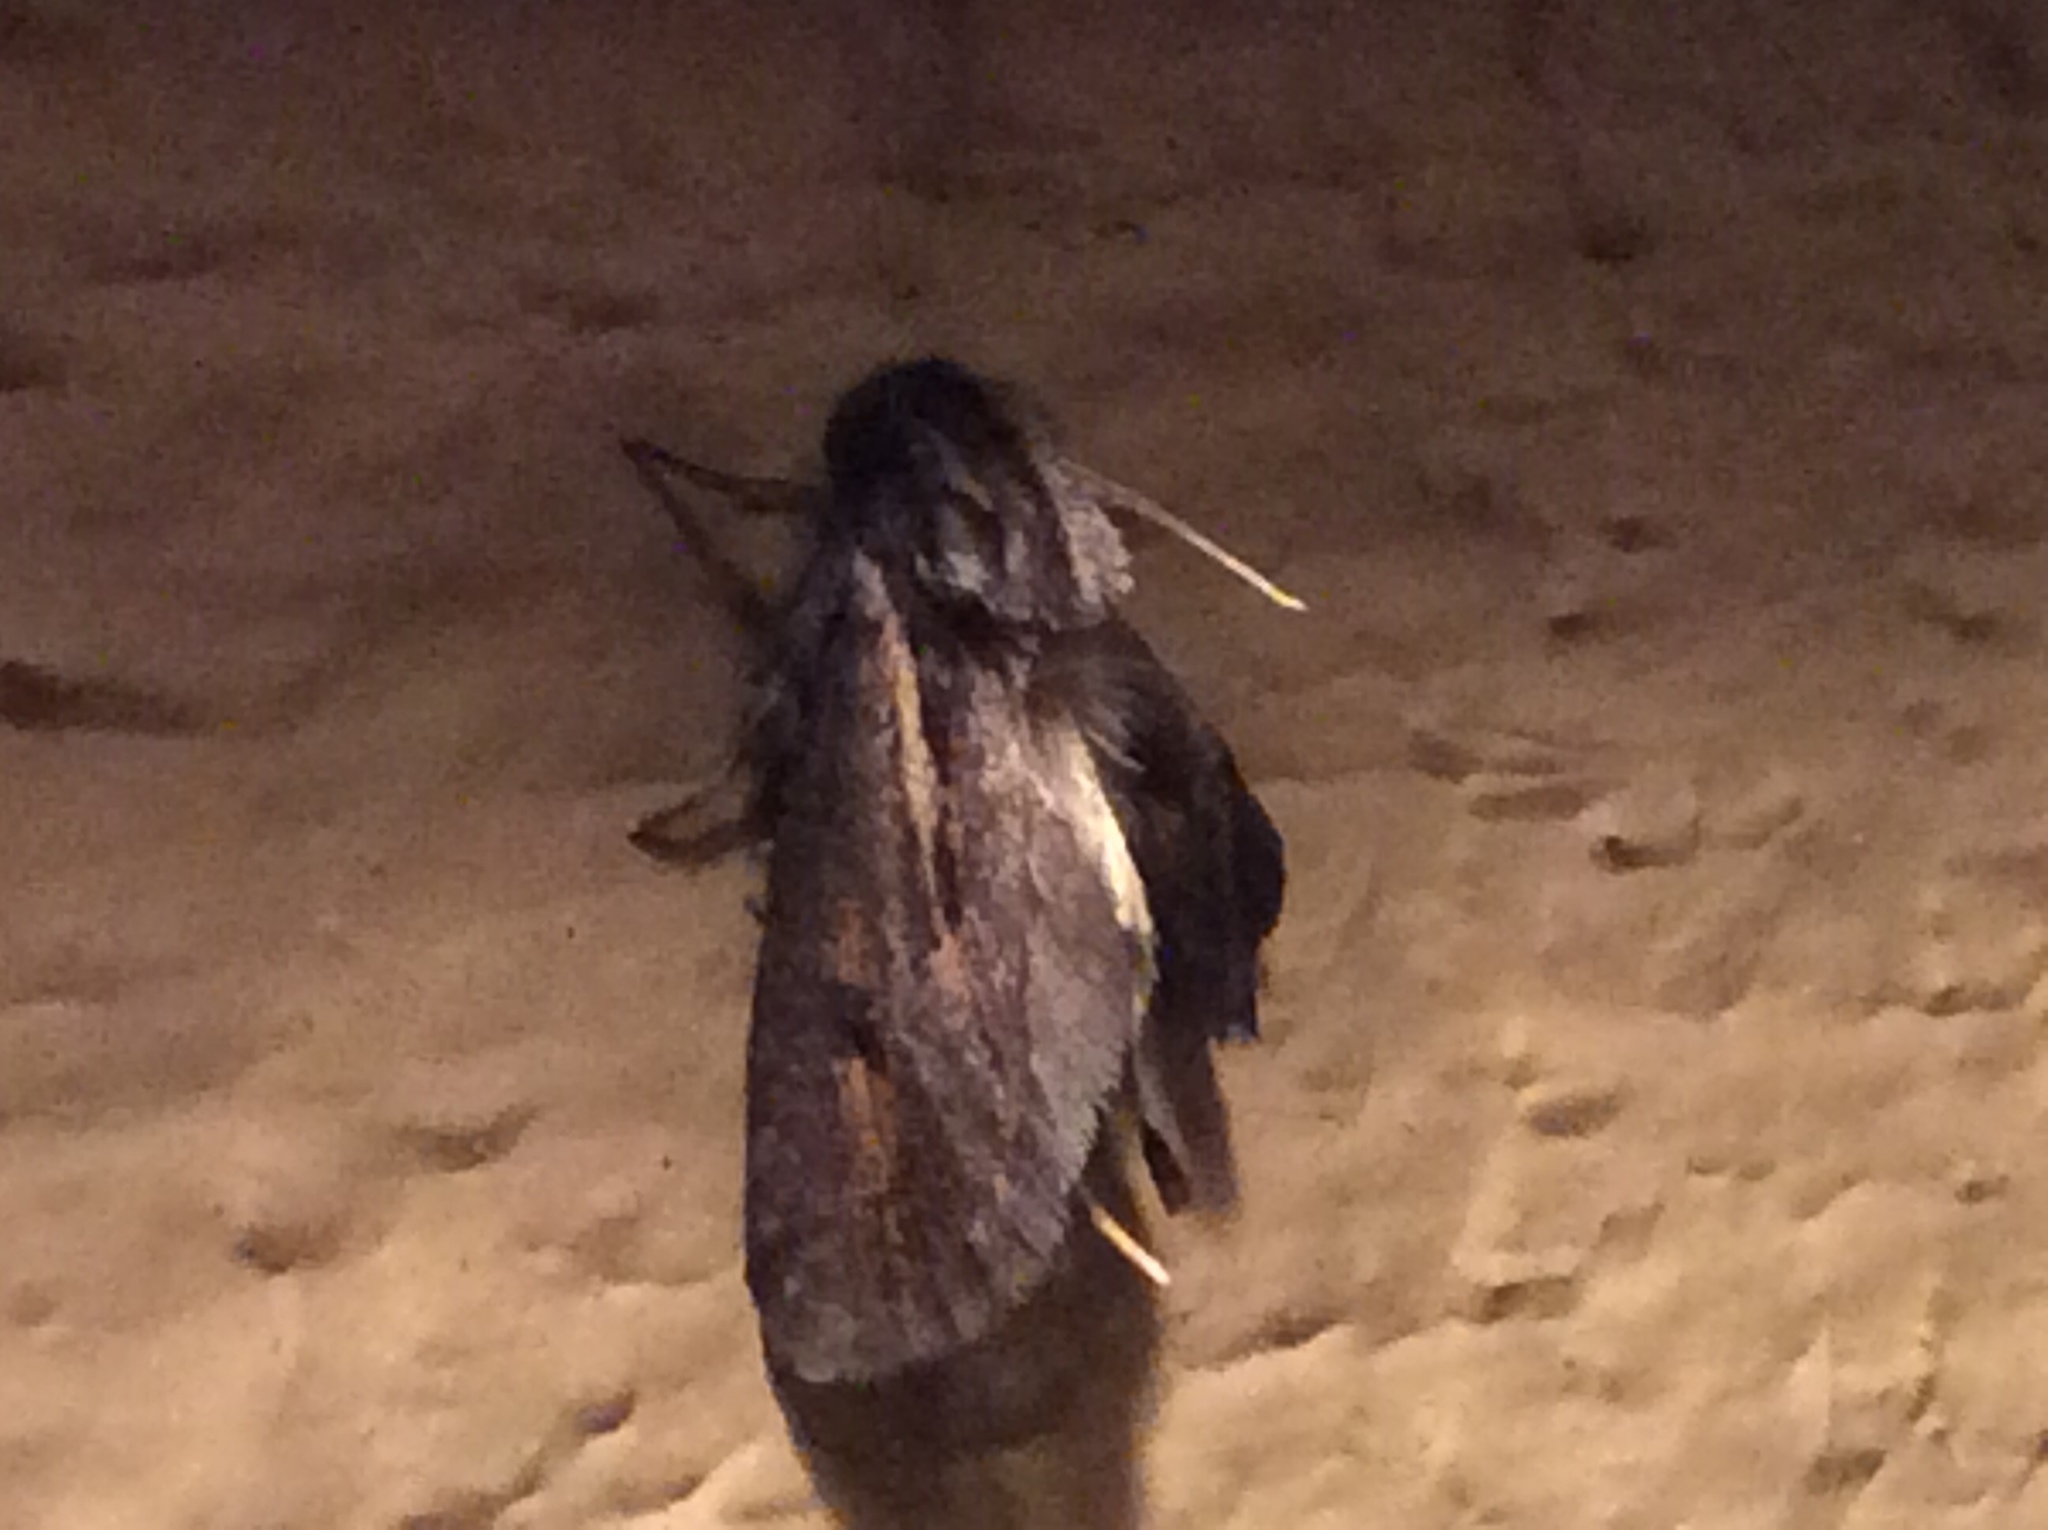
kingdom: Animalia
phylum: Arthropoda
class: Insecta
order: Lepidoptera
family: Tineidae
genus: Acrolophus
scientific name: Acrolophus popeanella
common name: Clemens' grass tubeworm moth
